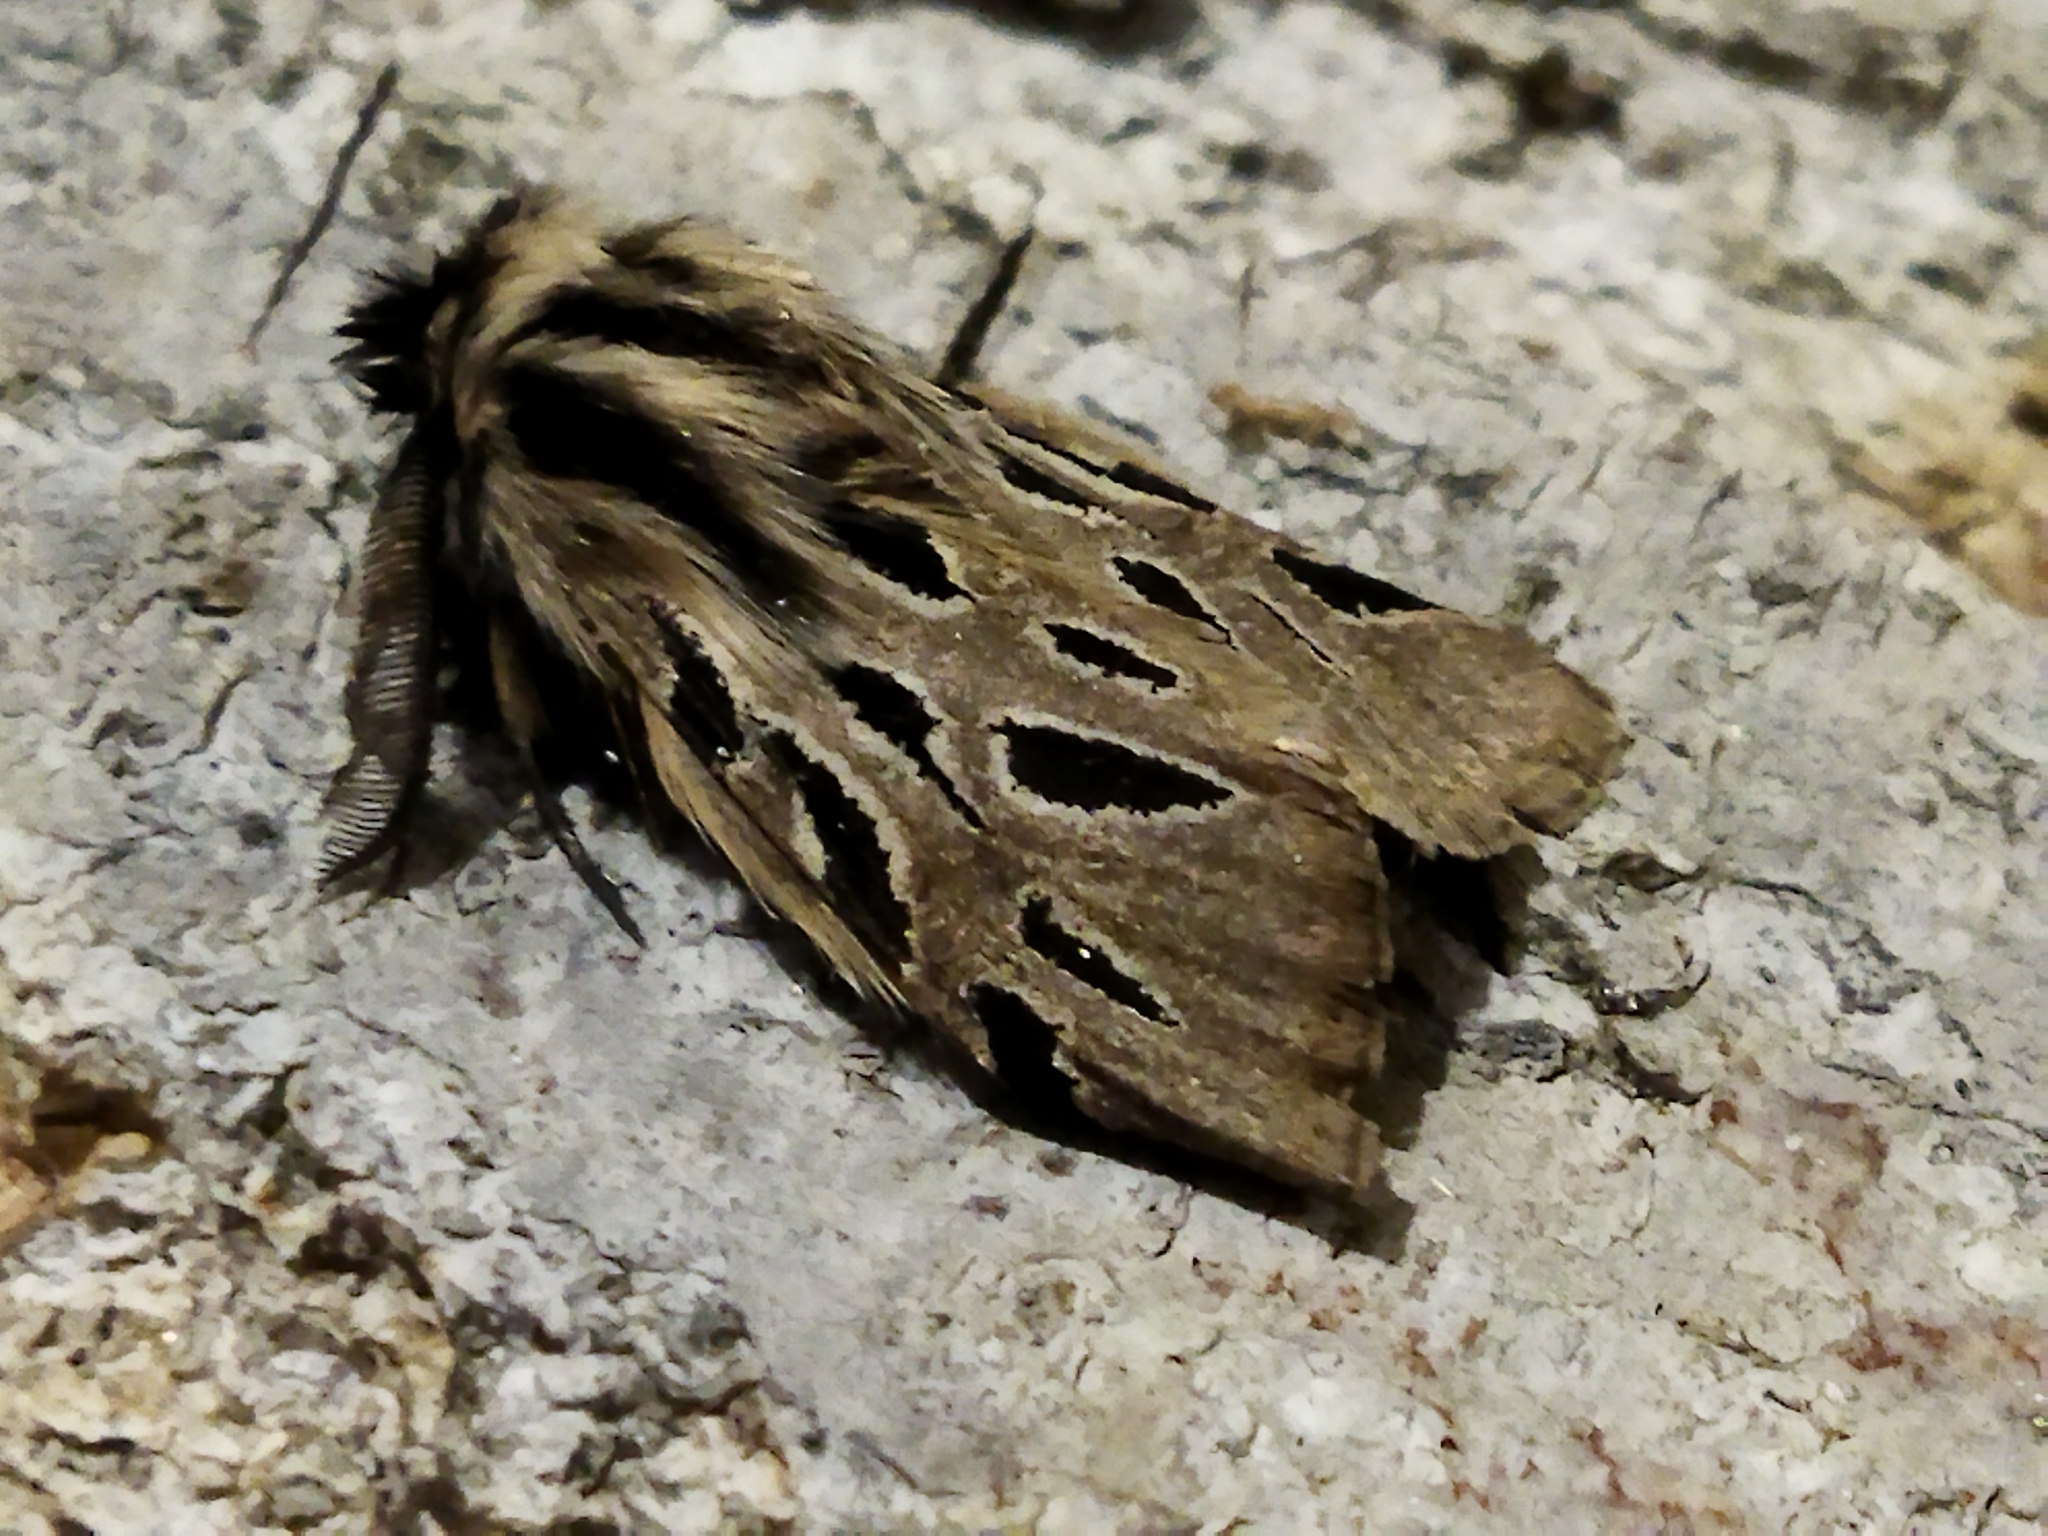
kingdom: Animalia
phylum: Arthropoda
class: Insecta
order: Lepidoptera
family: Erebidae
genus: Ocnogyna
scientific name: Ocnogyna parasita
